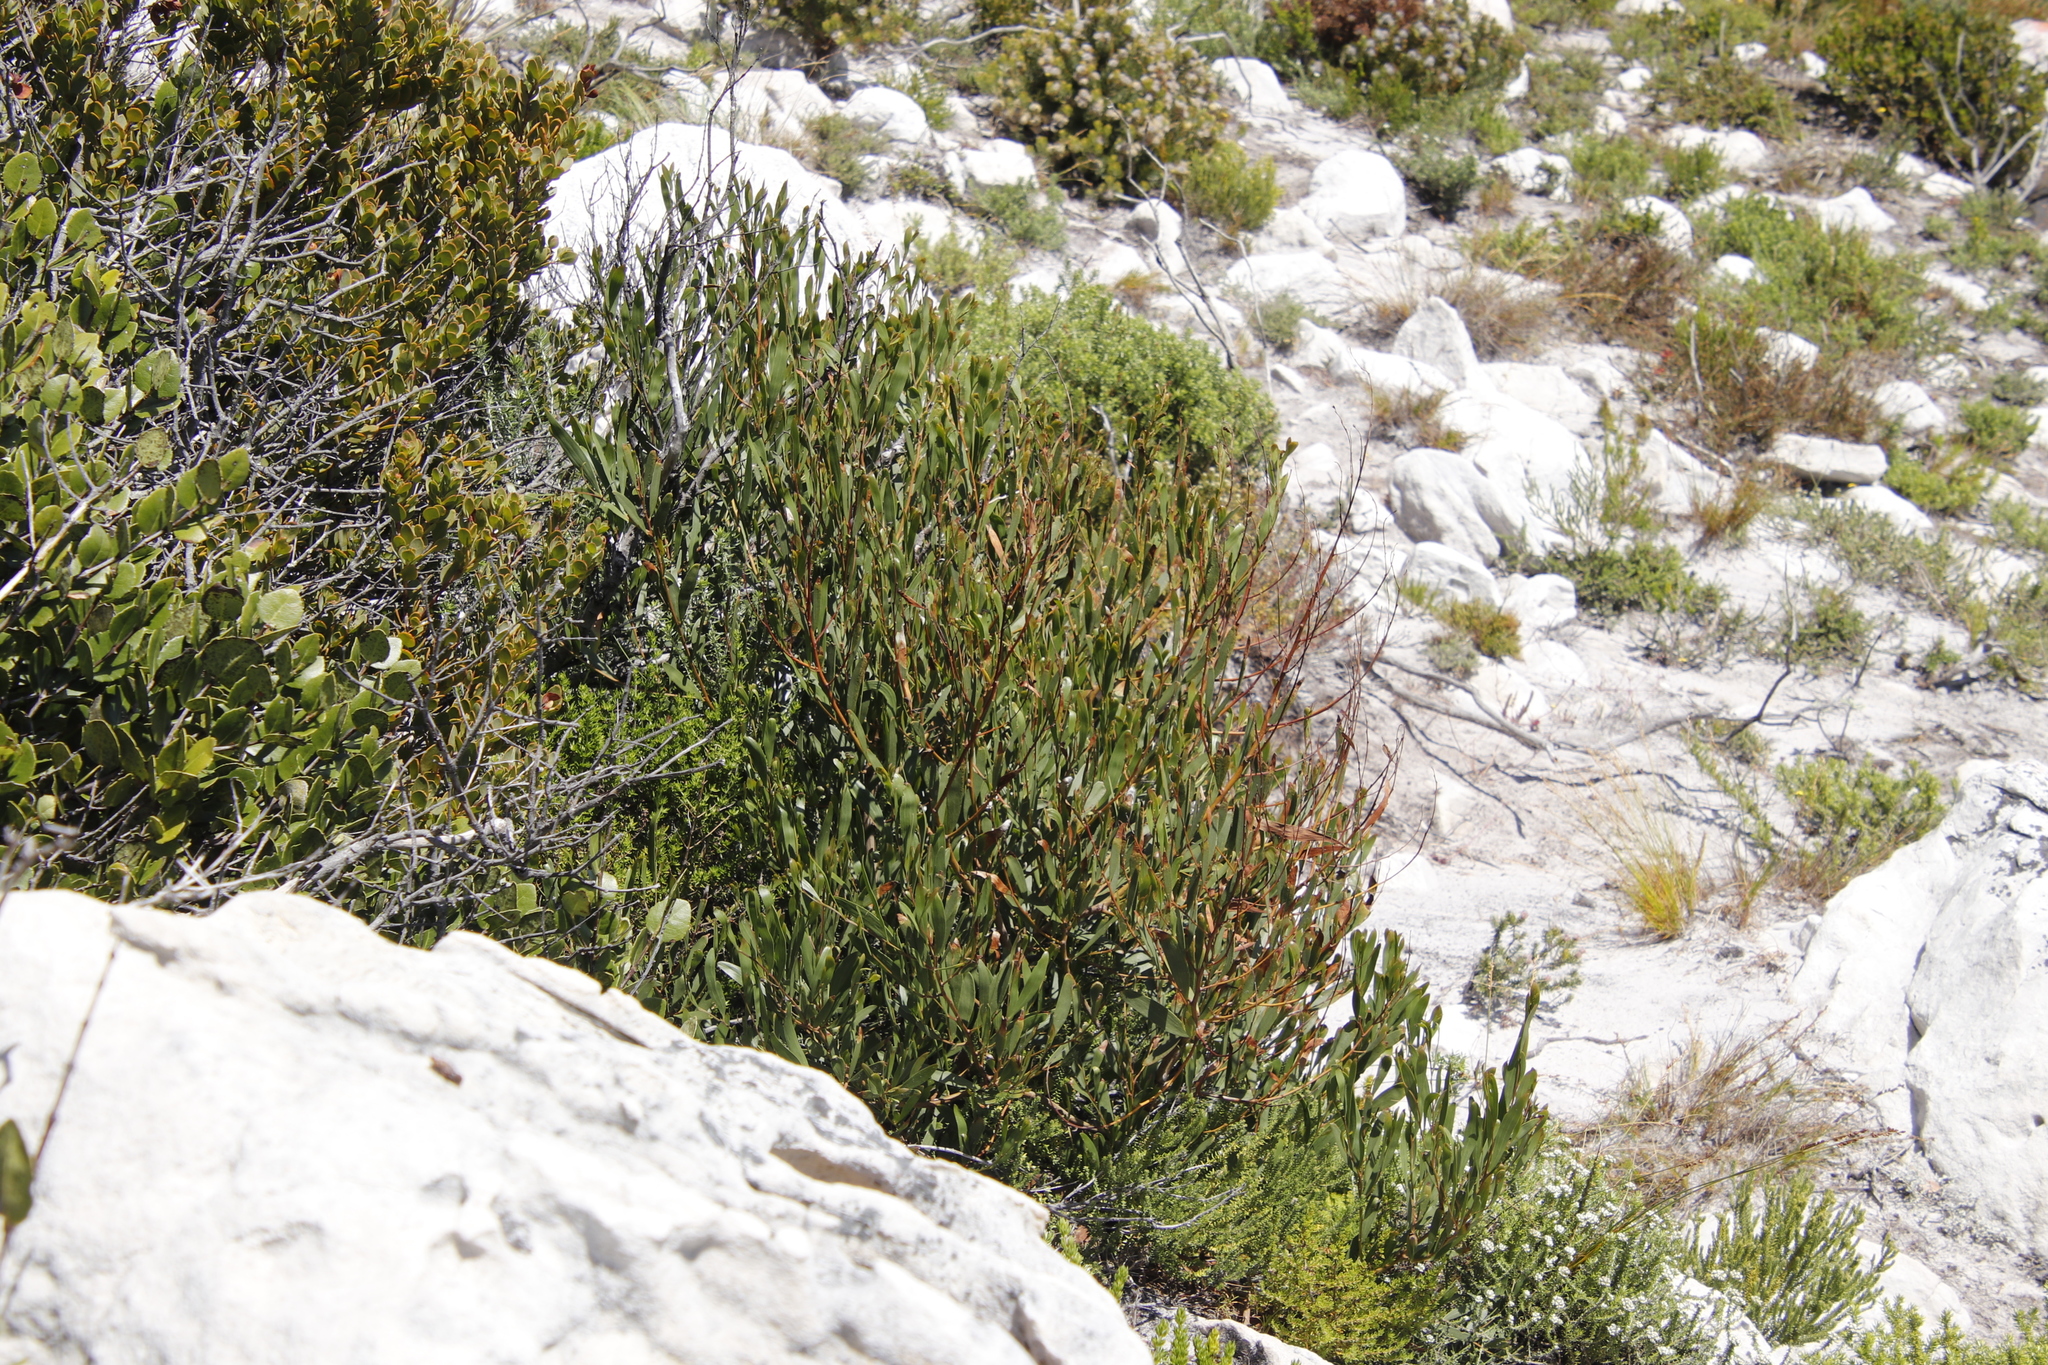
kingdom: Plantae
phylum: Tracheophyta
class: Magnoliopsida
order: Fabales
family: Fabaceae
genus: Acacia
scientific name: Acacia cyclops
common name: Coastal wattle
